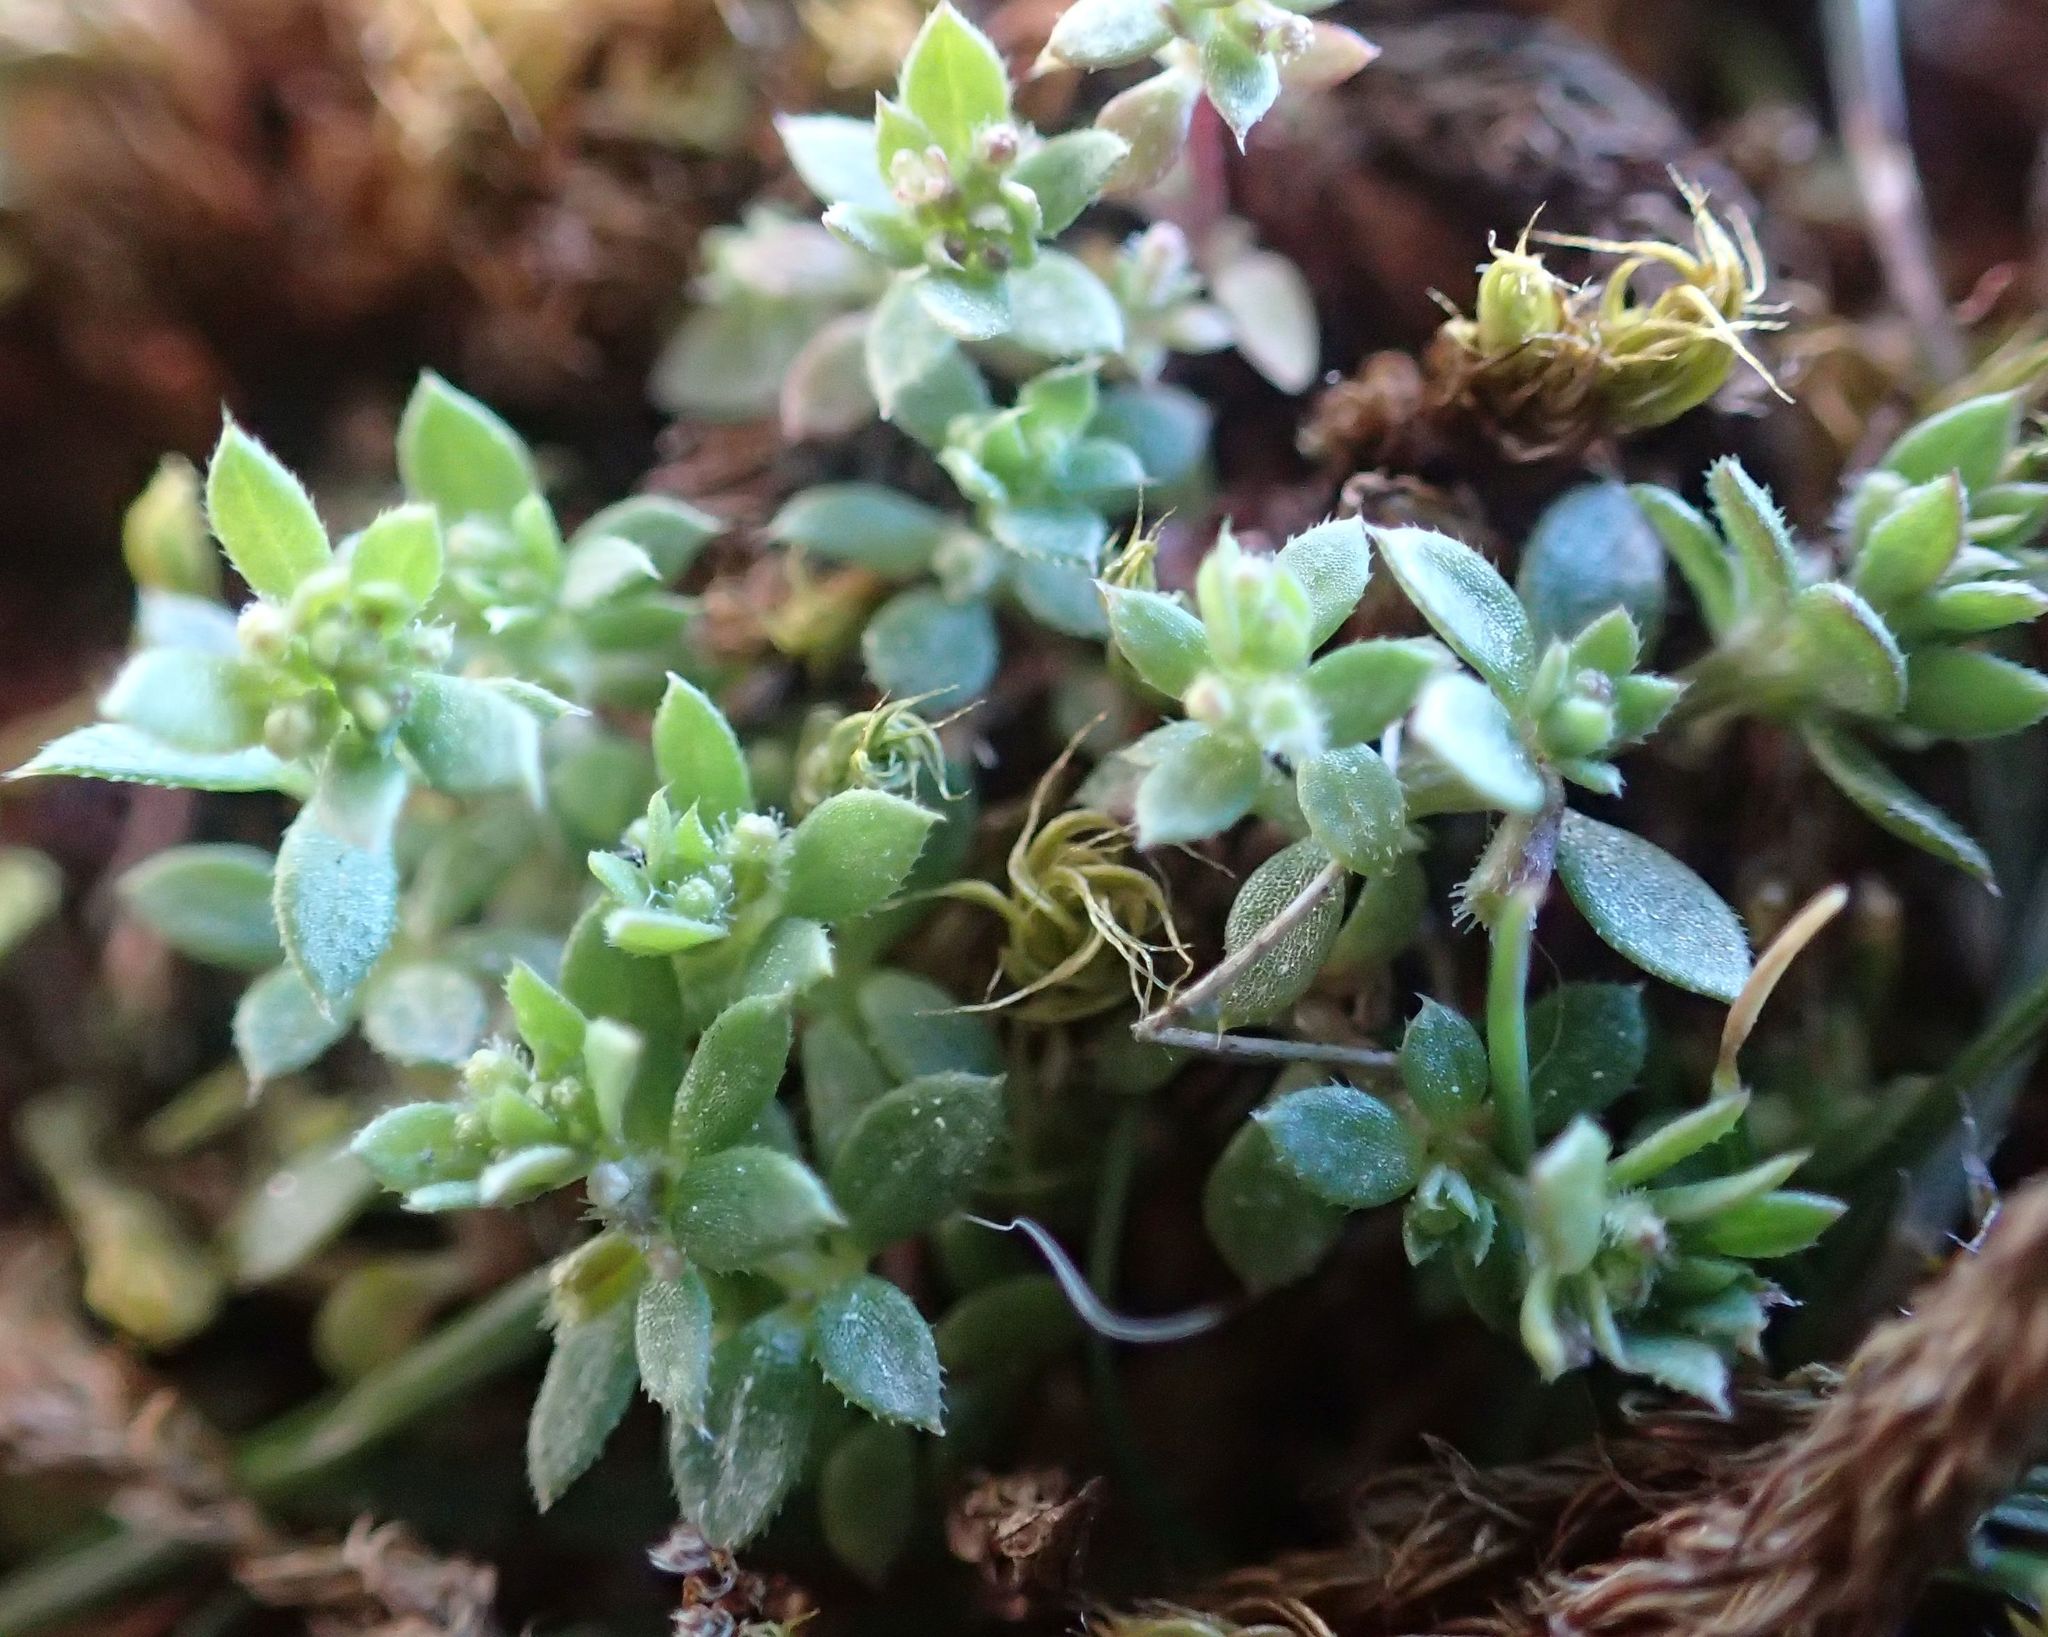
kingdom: Plantae
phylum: Tracheophyta
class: Magnoliopsida
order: Gentianales
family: Rubiaceae
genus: Galium
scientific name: Galium murale
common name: Yellow wall bedstraw
